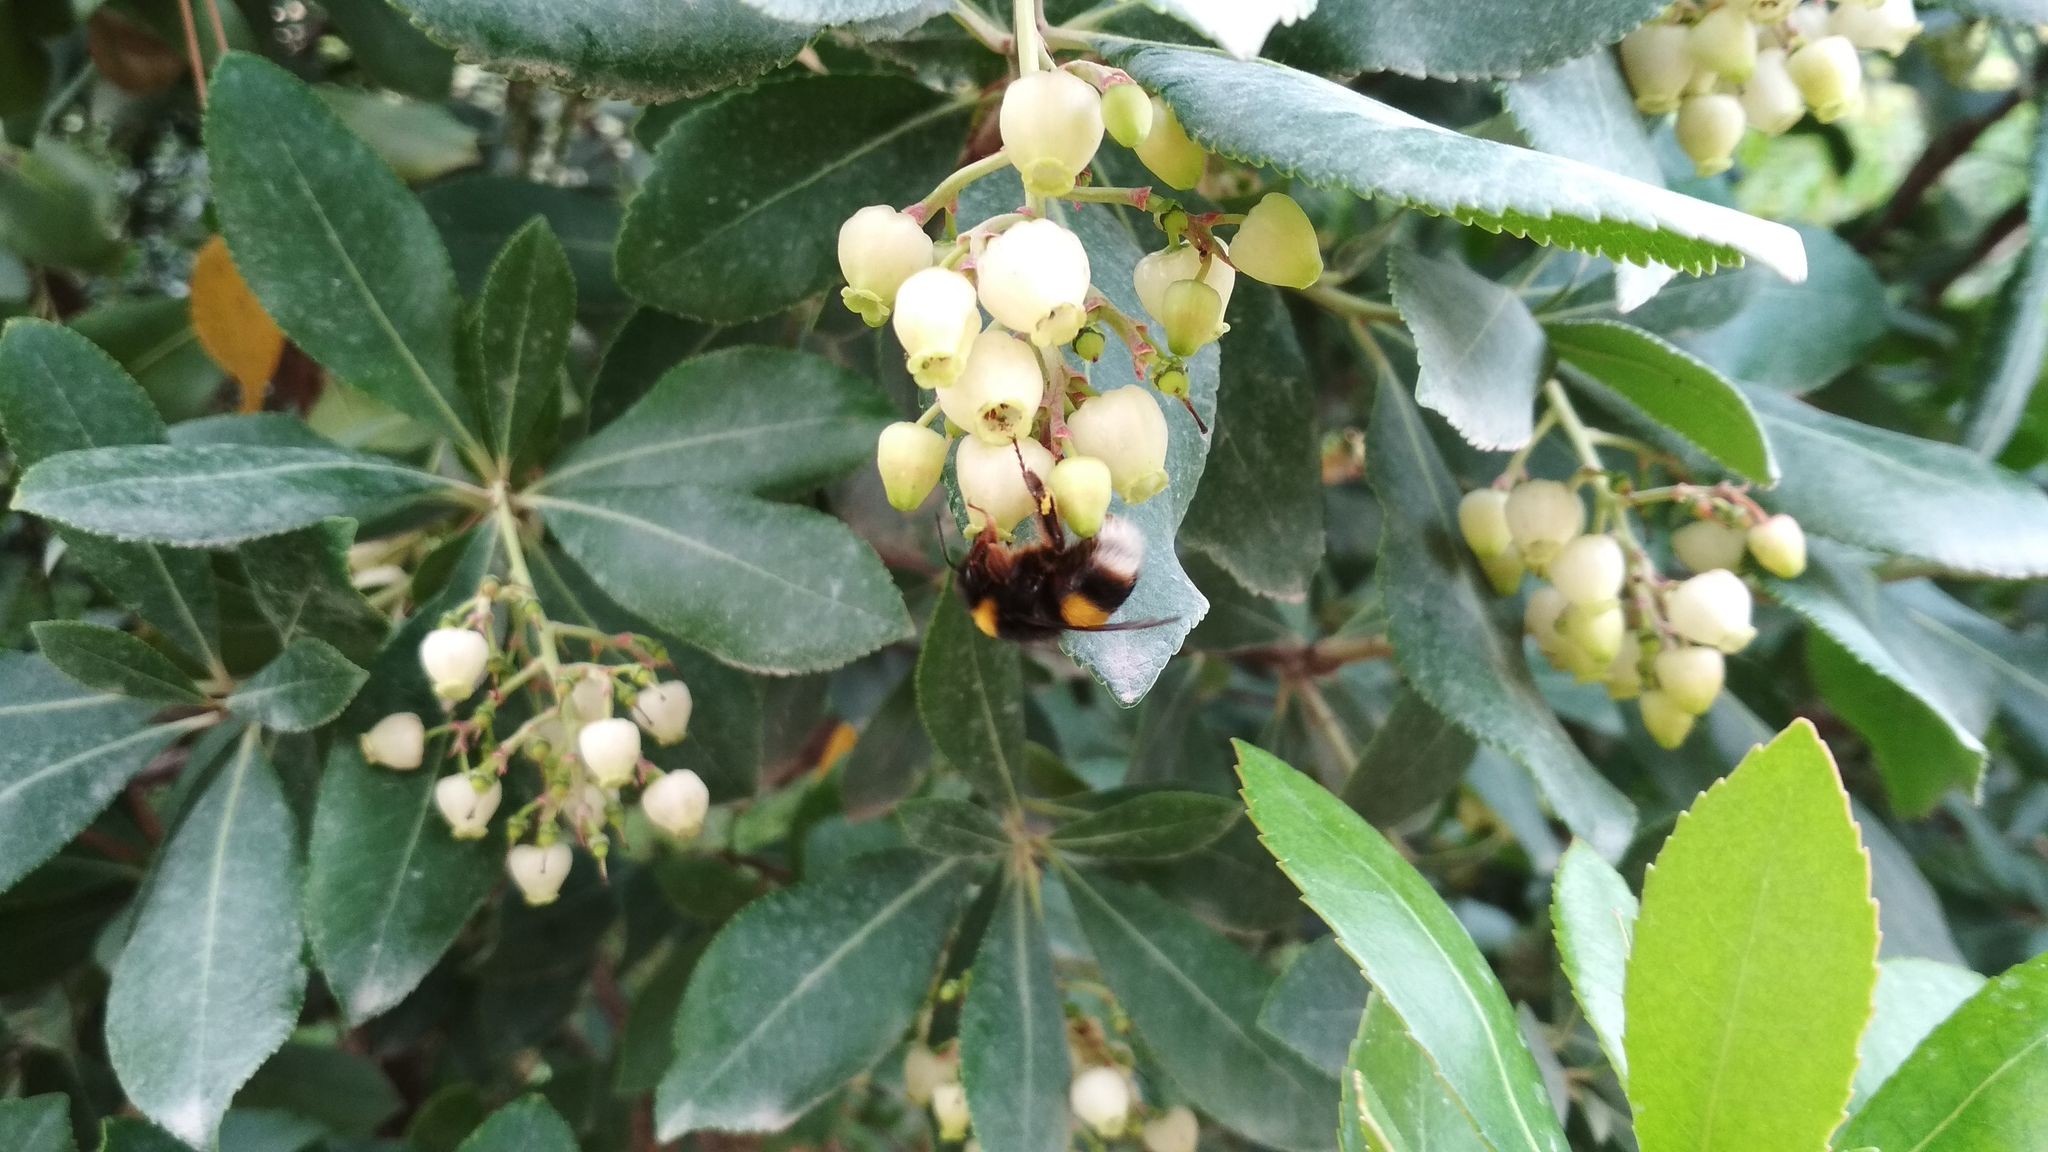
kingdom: Plantae
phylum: Tracheophyta
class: Magnoliopsida
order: Ericales
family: Ericaceae
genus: Arbutus
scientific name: Arbutus unedo
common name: Strawberry-tree
